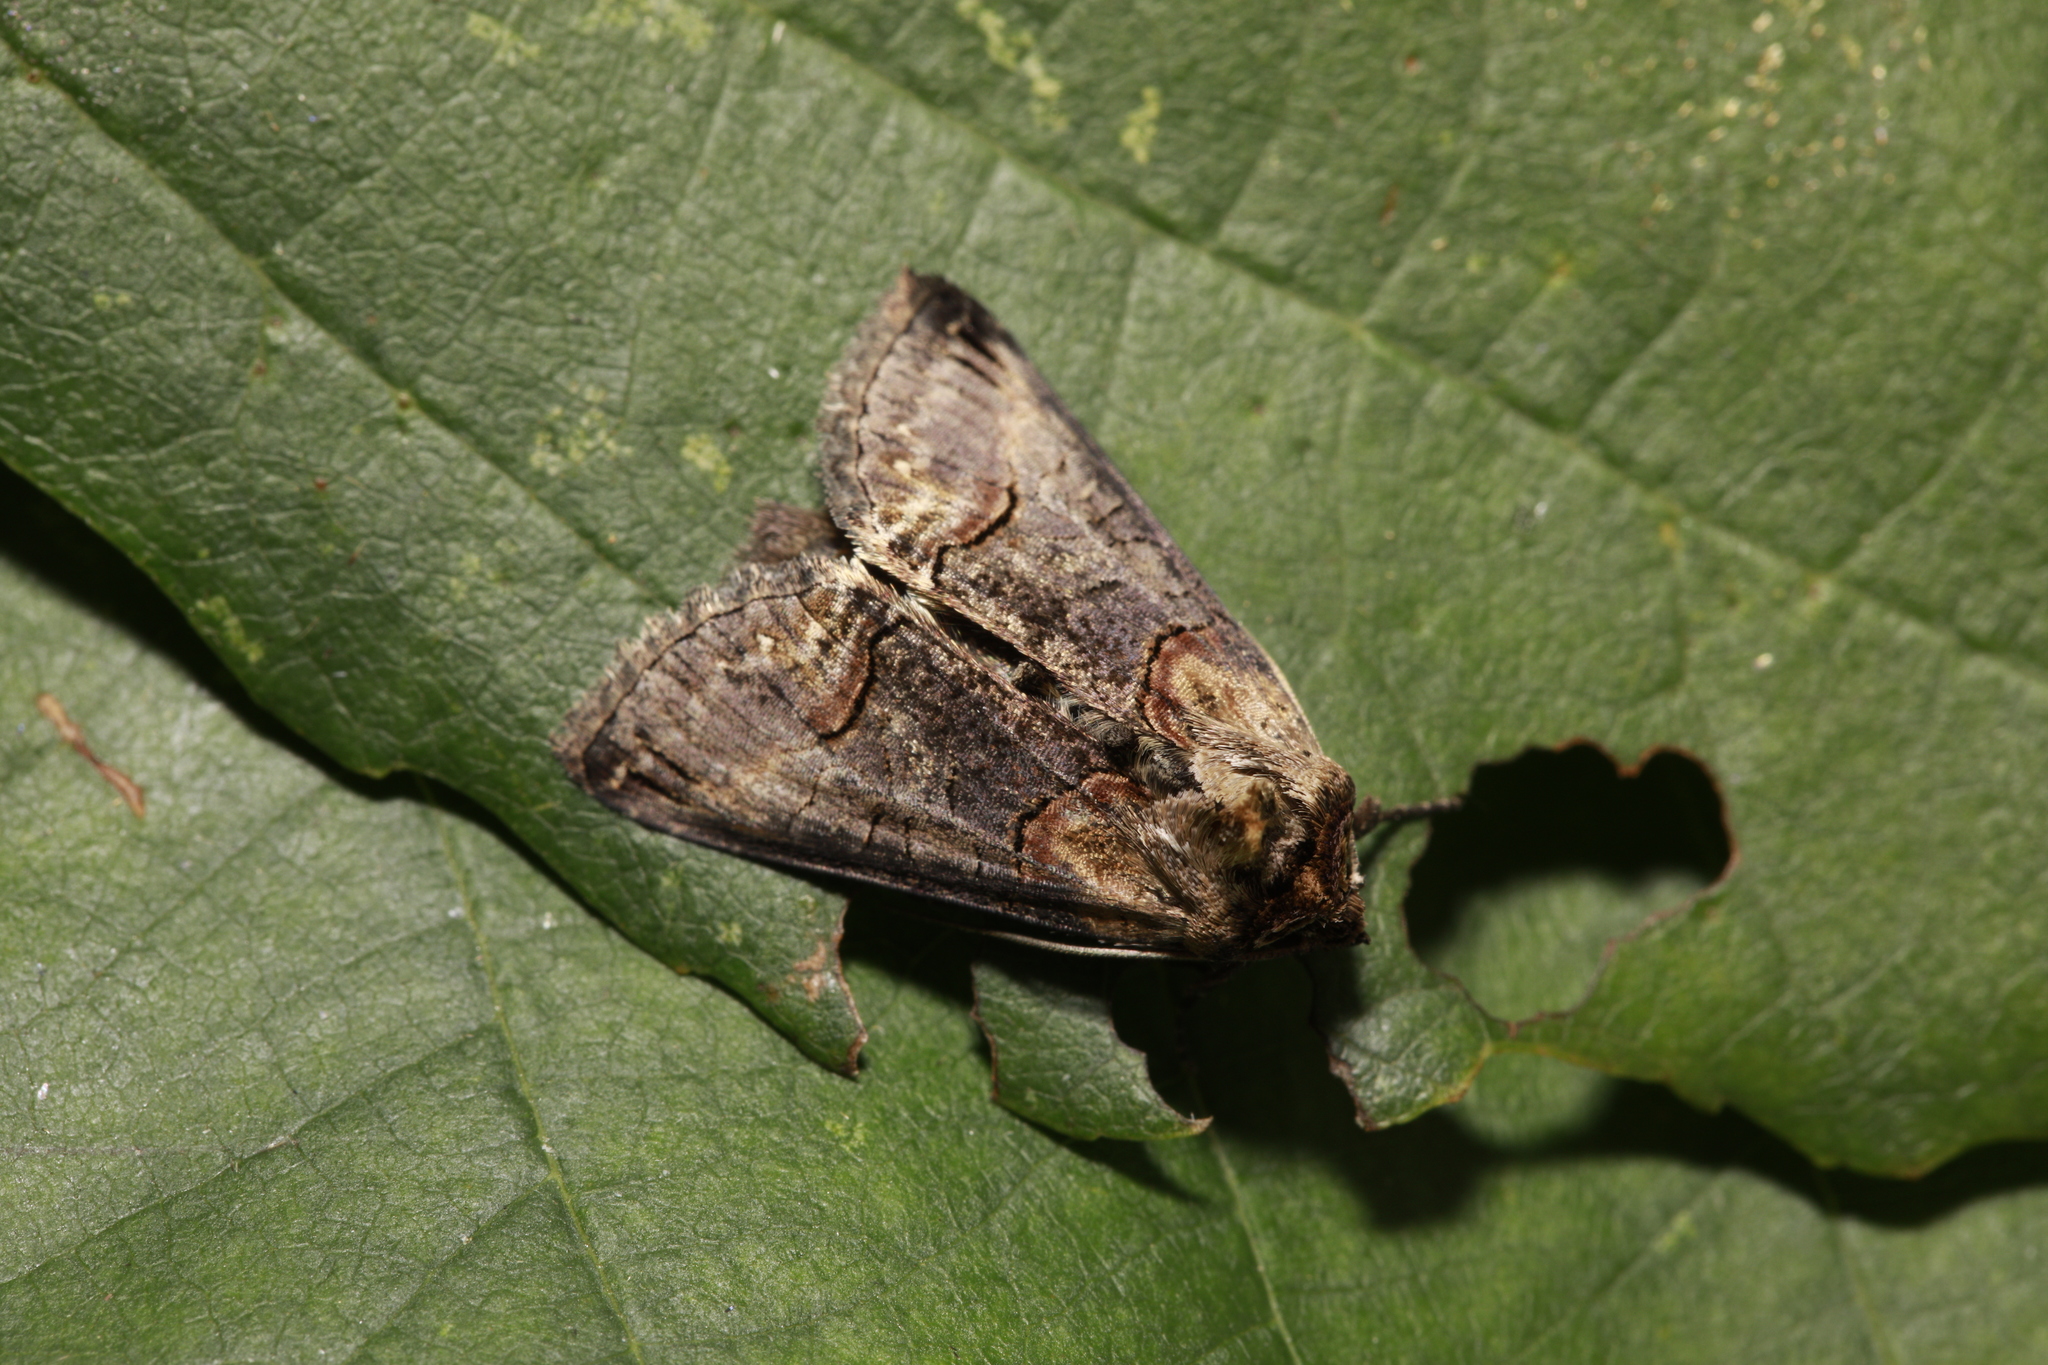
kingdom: Animalia
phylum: Arthropoda
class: Insecta
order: Lepidoptera
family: Noctuidae
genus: Abrostola
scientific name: Abrostola triplasia
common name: Dark spectacle
